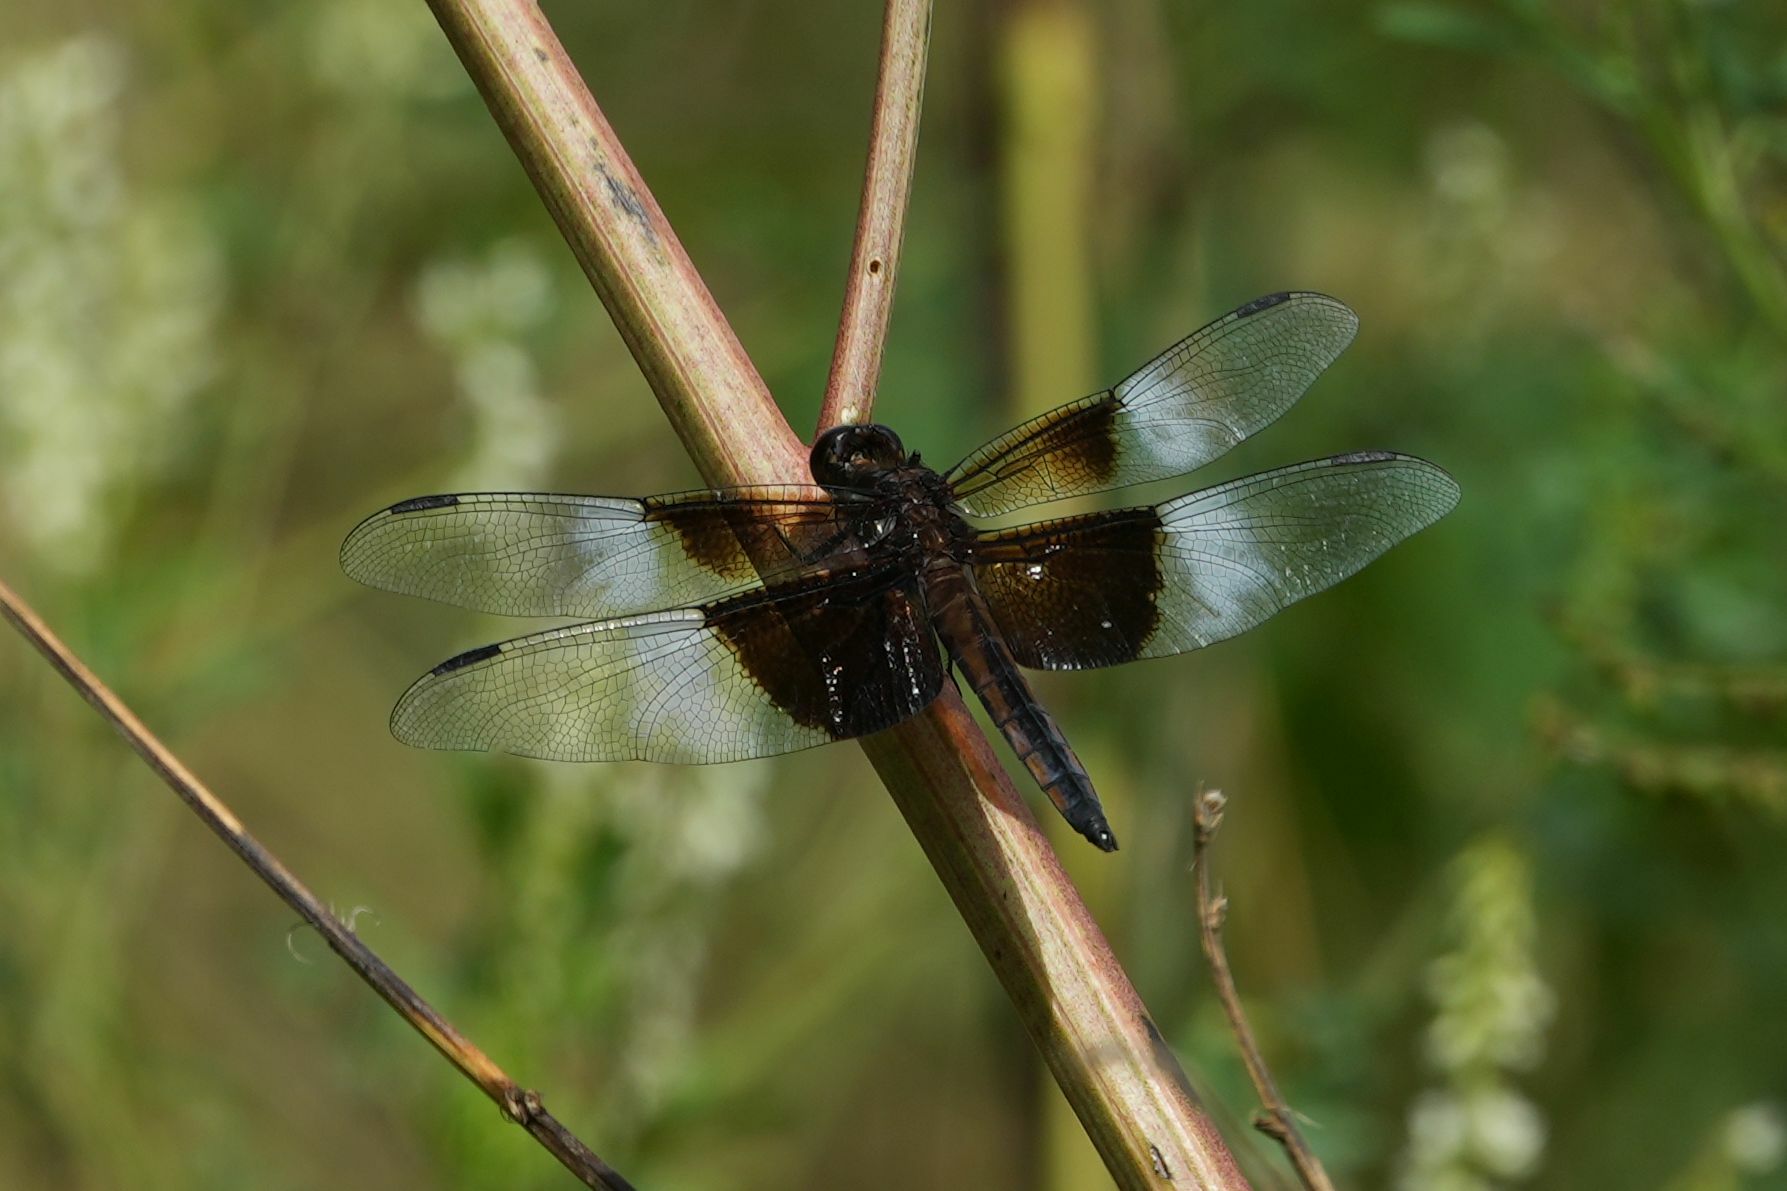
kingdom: Animalia
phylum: Arthropoda
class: Insecta
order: Odonata
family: Libellulidae
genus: Libellula
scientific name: Libellula luctuosa
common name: Widow skimmer
